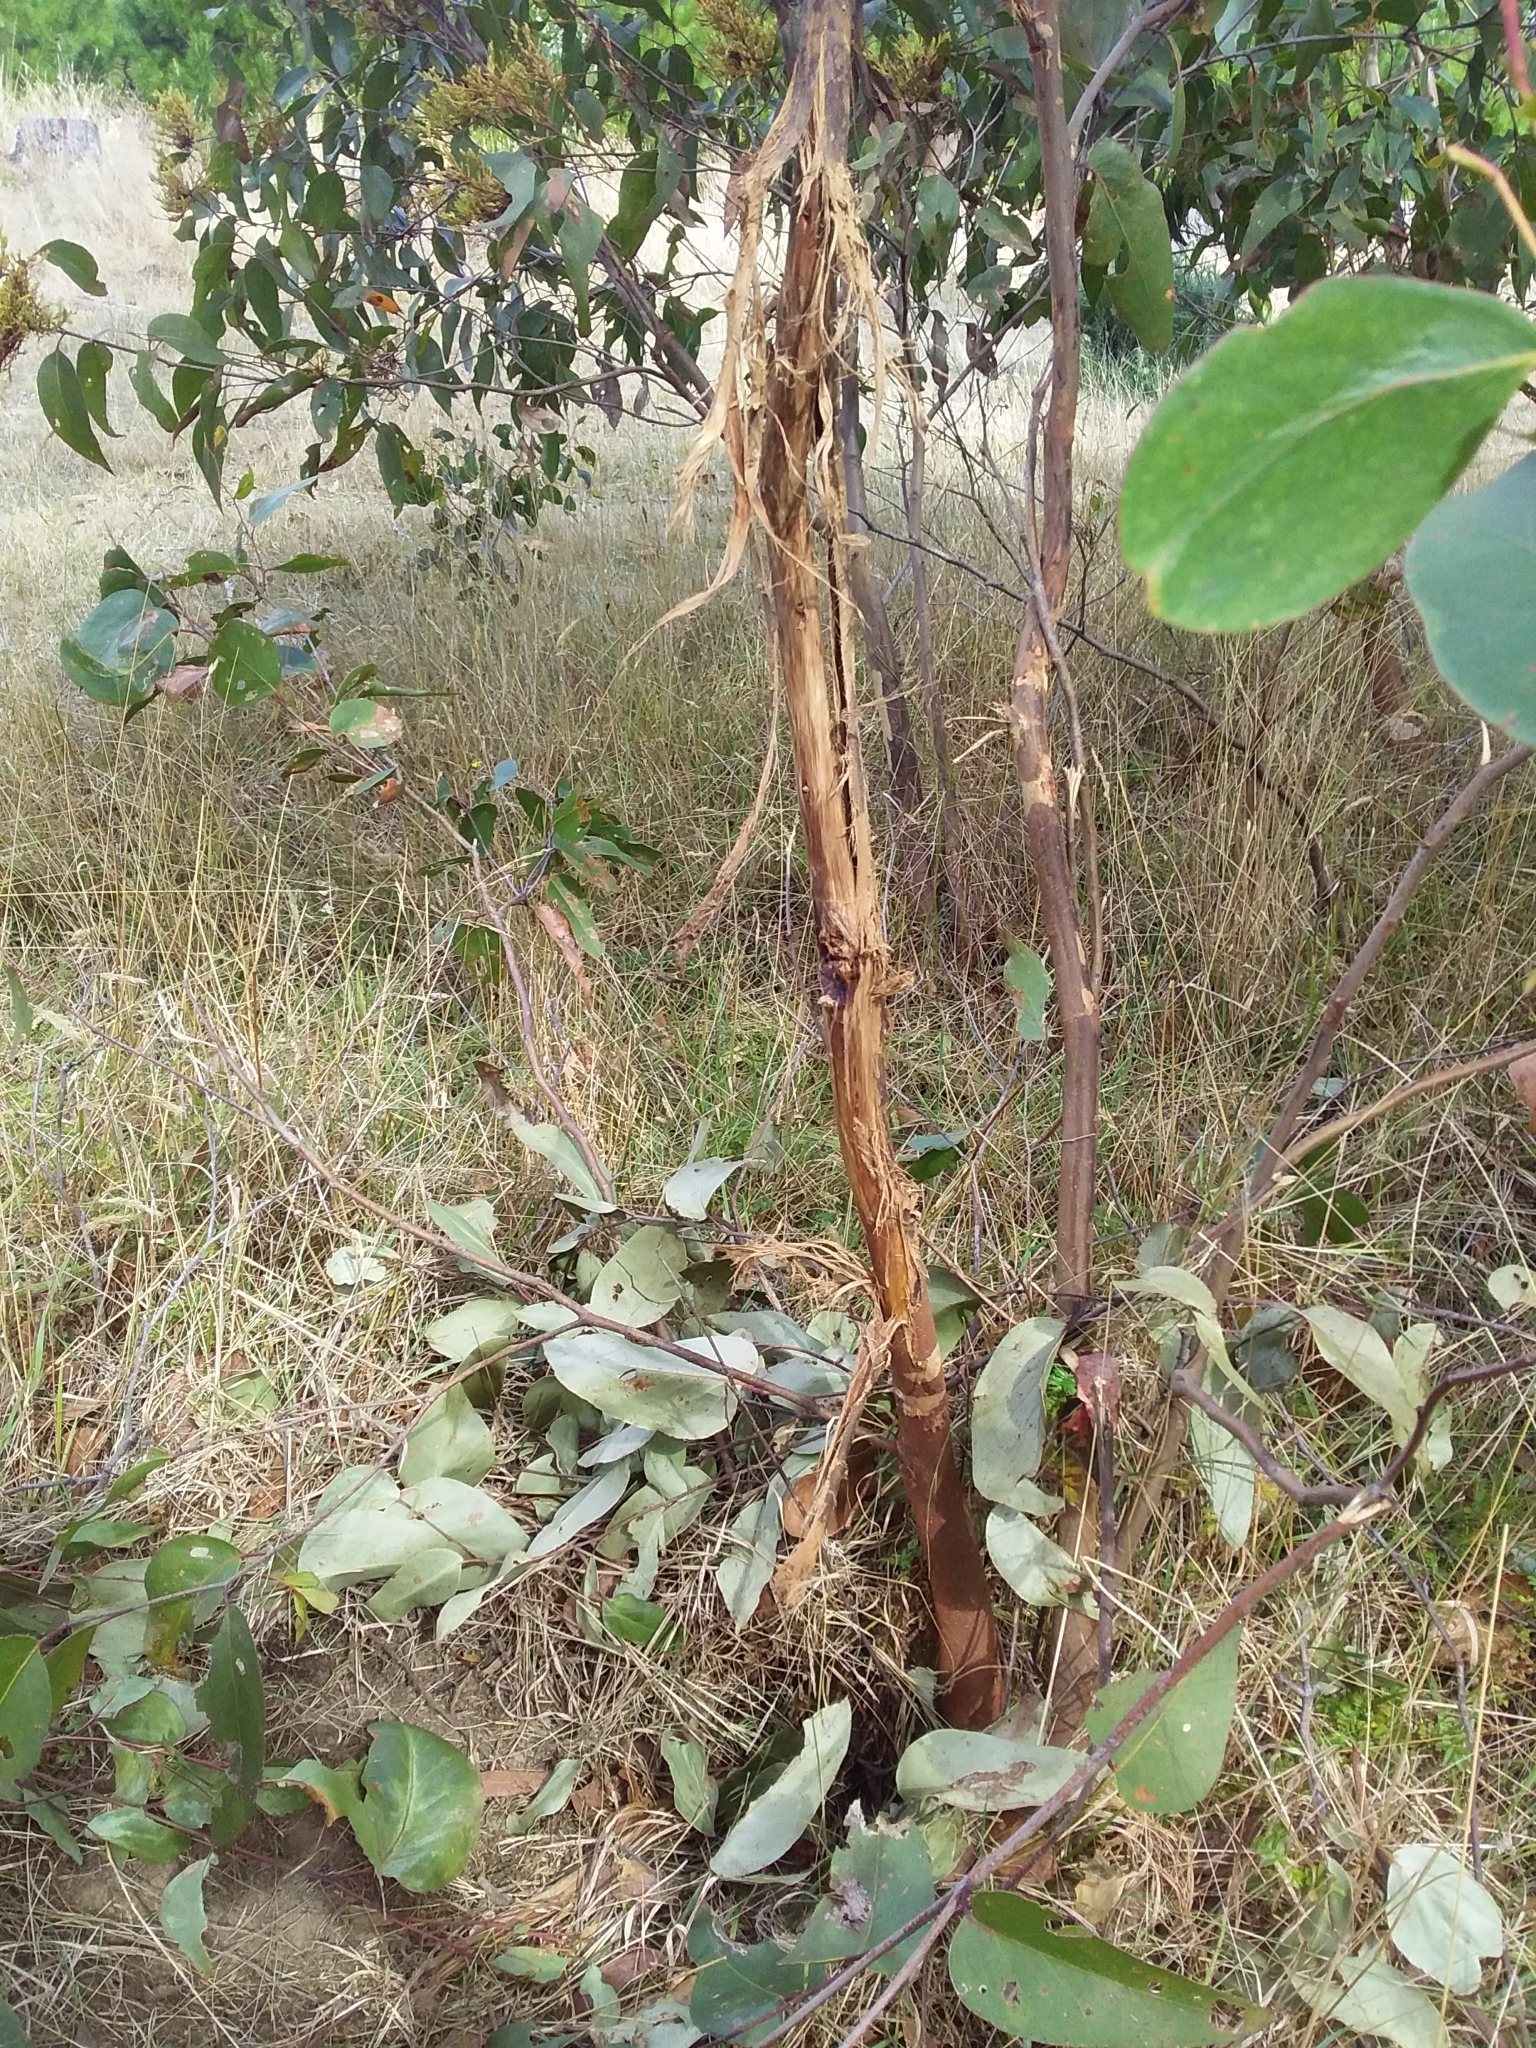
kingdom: Animalia
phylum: Chordata
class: Mammalia
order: Artiodactyla
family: Cervidae
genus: Dama
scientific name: Dama dama
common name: Fallow deer
